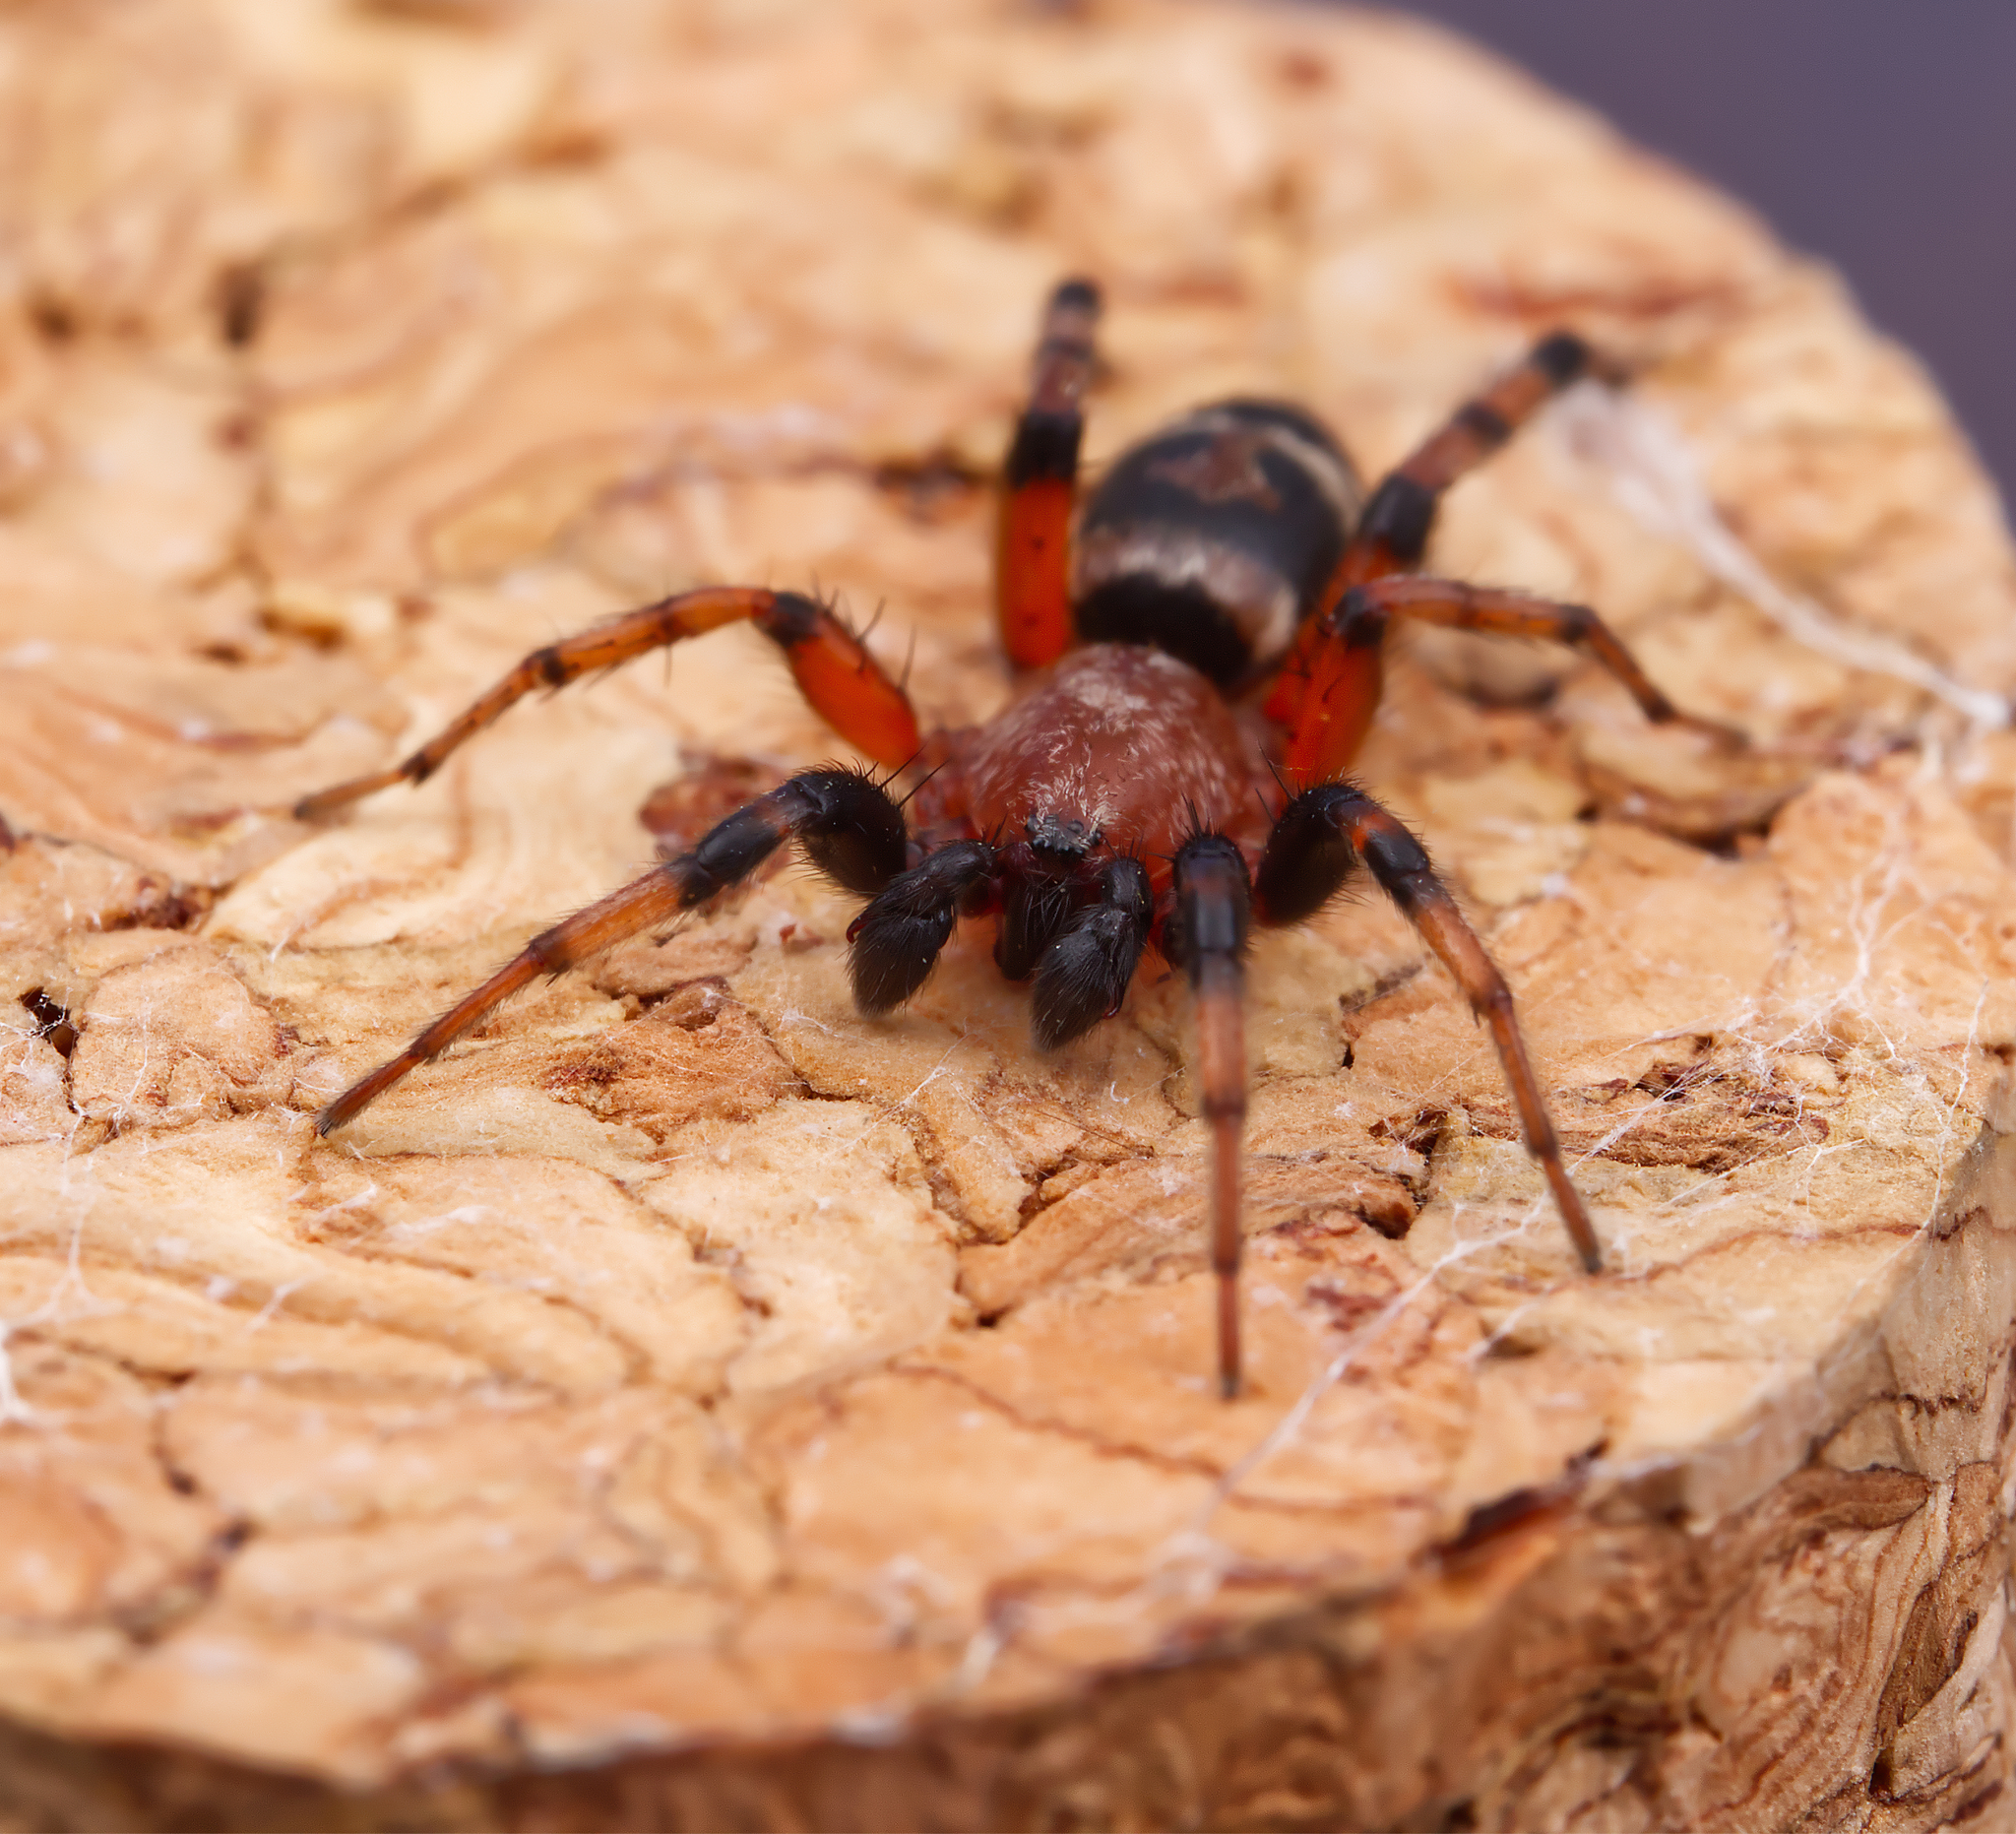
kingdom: Animalia
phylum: Arthropoda
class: Arachnida
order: Araneae
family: Gnaphosidae
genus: Sergiolus
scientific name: Sergiolus capulatus
